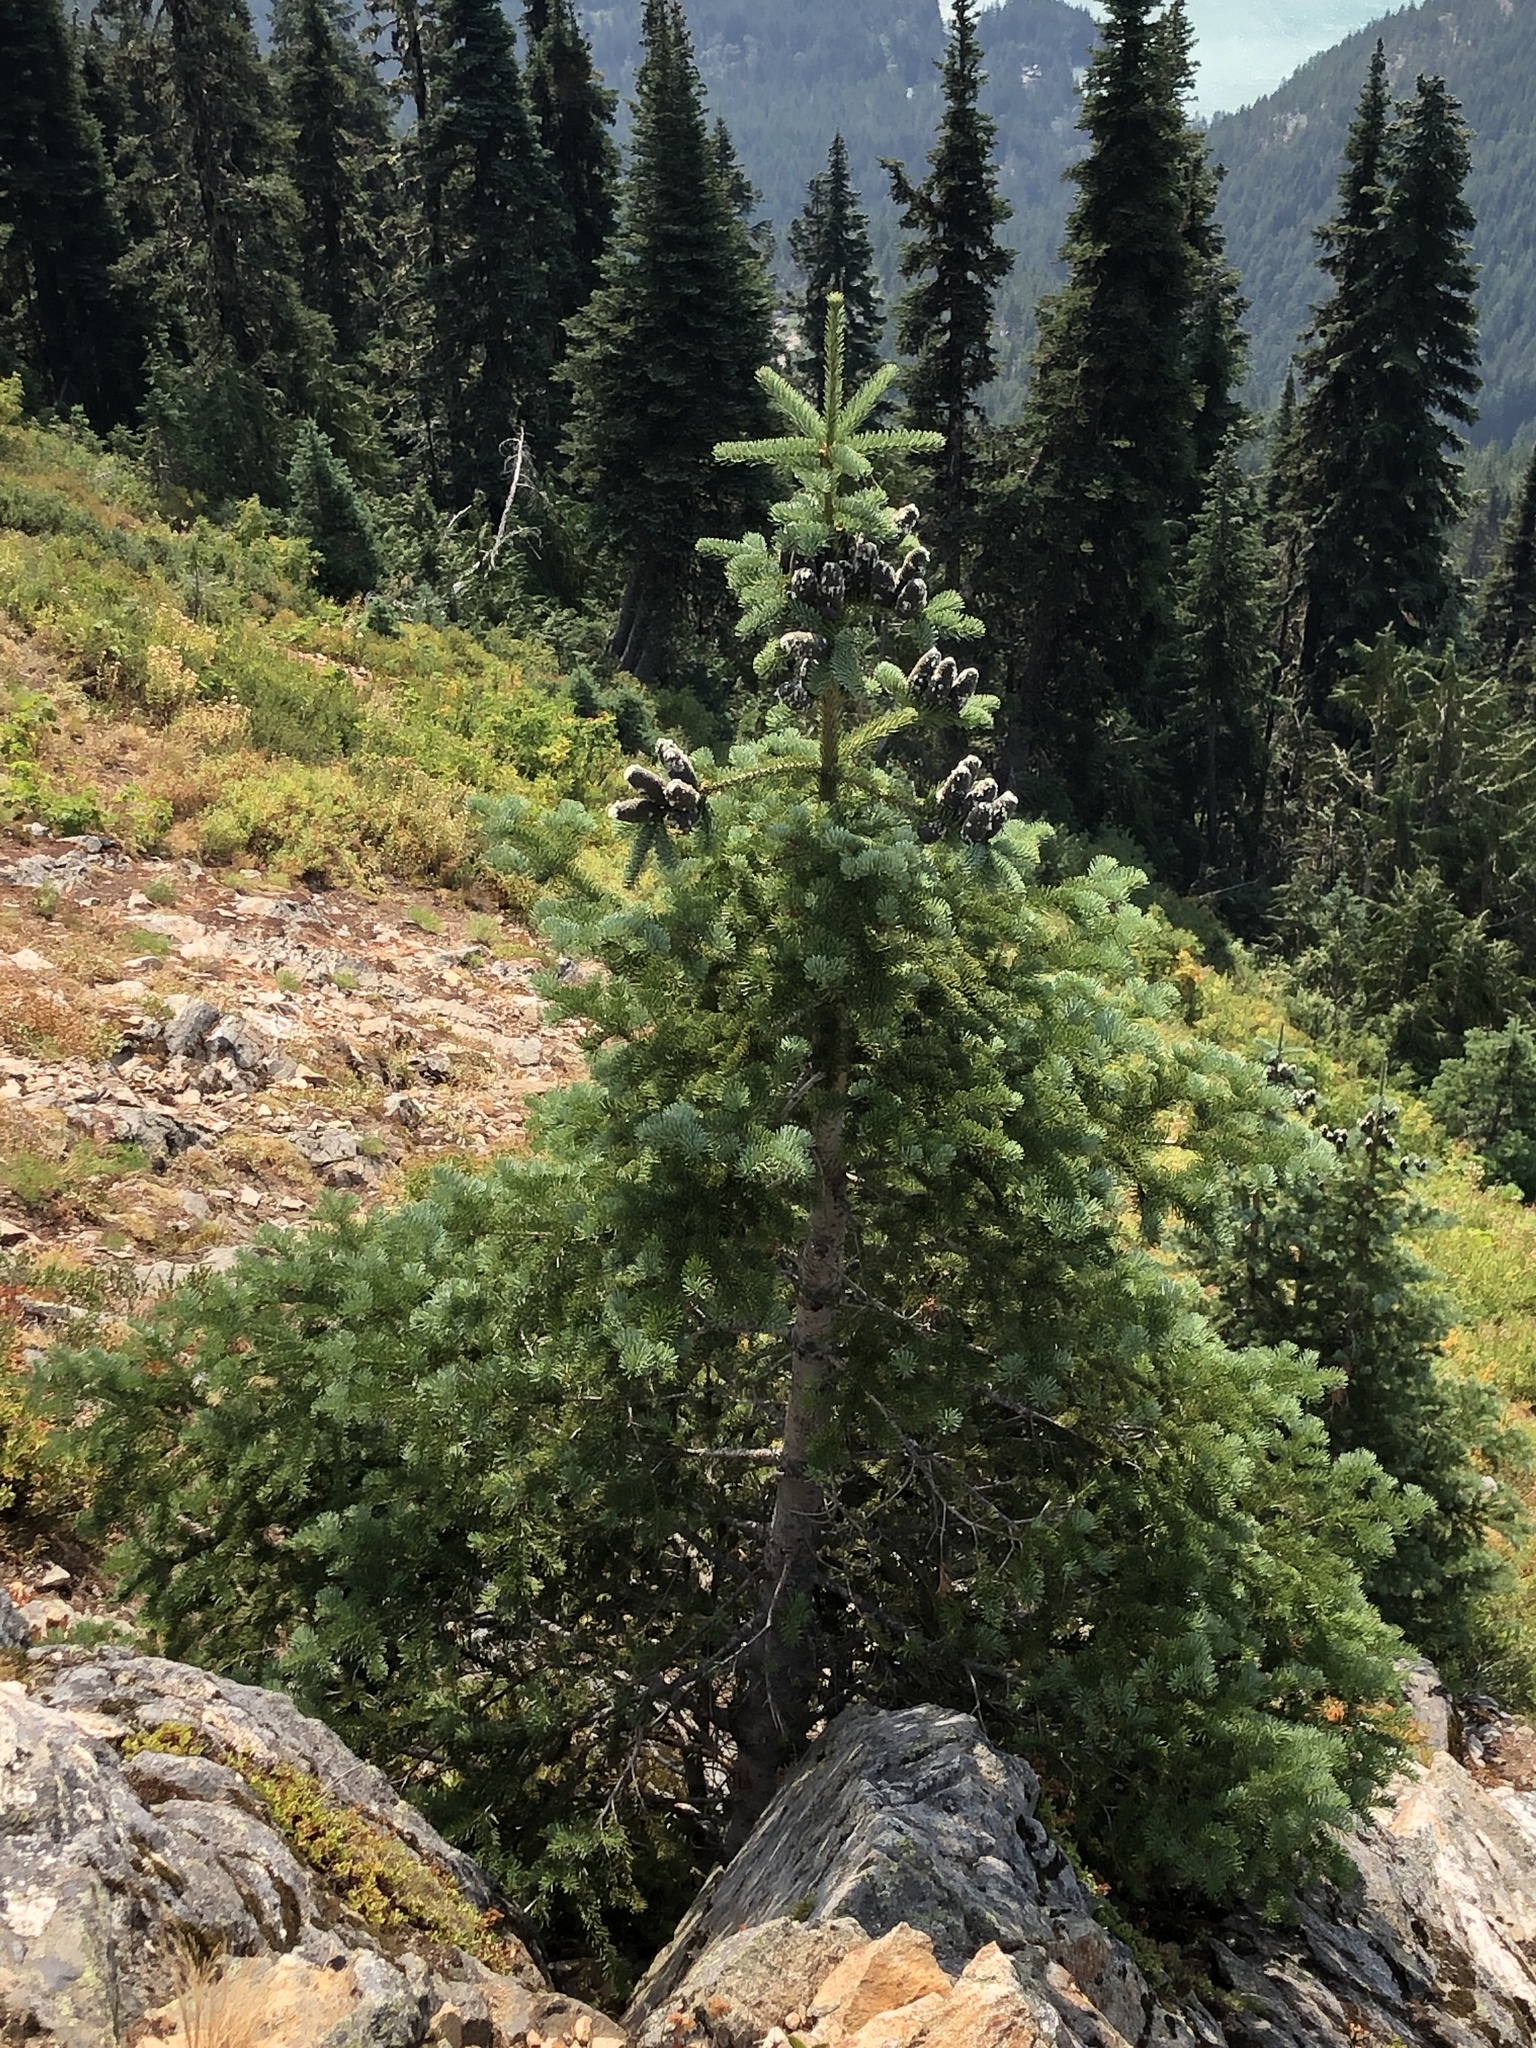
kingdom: Plantae
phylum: Tracheophyta
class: Pinopsida
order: Pinales
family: Pinaceae
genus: Abies
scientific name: Abies lasiocarpa
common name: Subalpine fir
